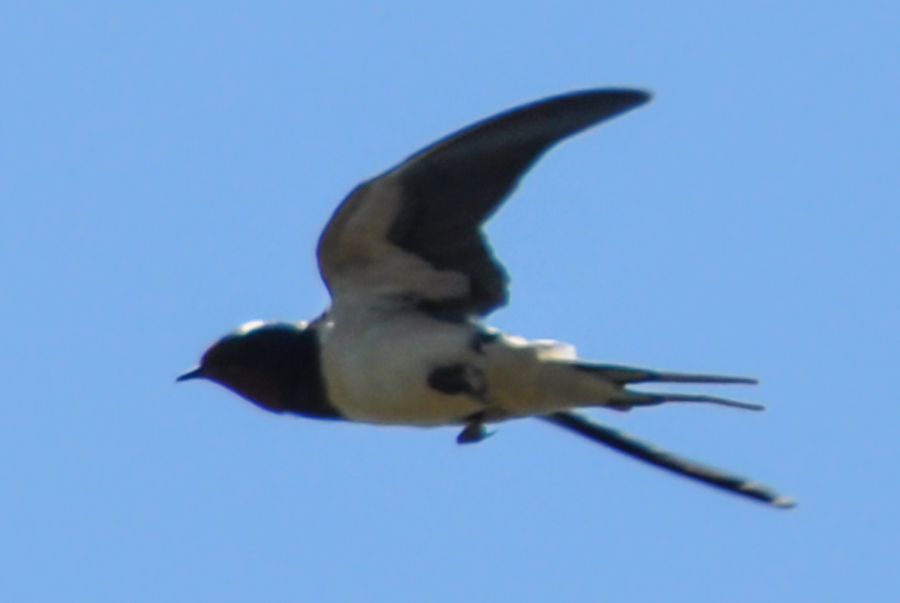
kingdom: Animalia
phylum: Chordata
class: Aves
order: Passeriformes
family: Hirundinidae
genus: Hirundo
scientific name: Hirundo rustica
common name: Barn swallow
